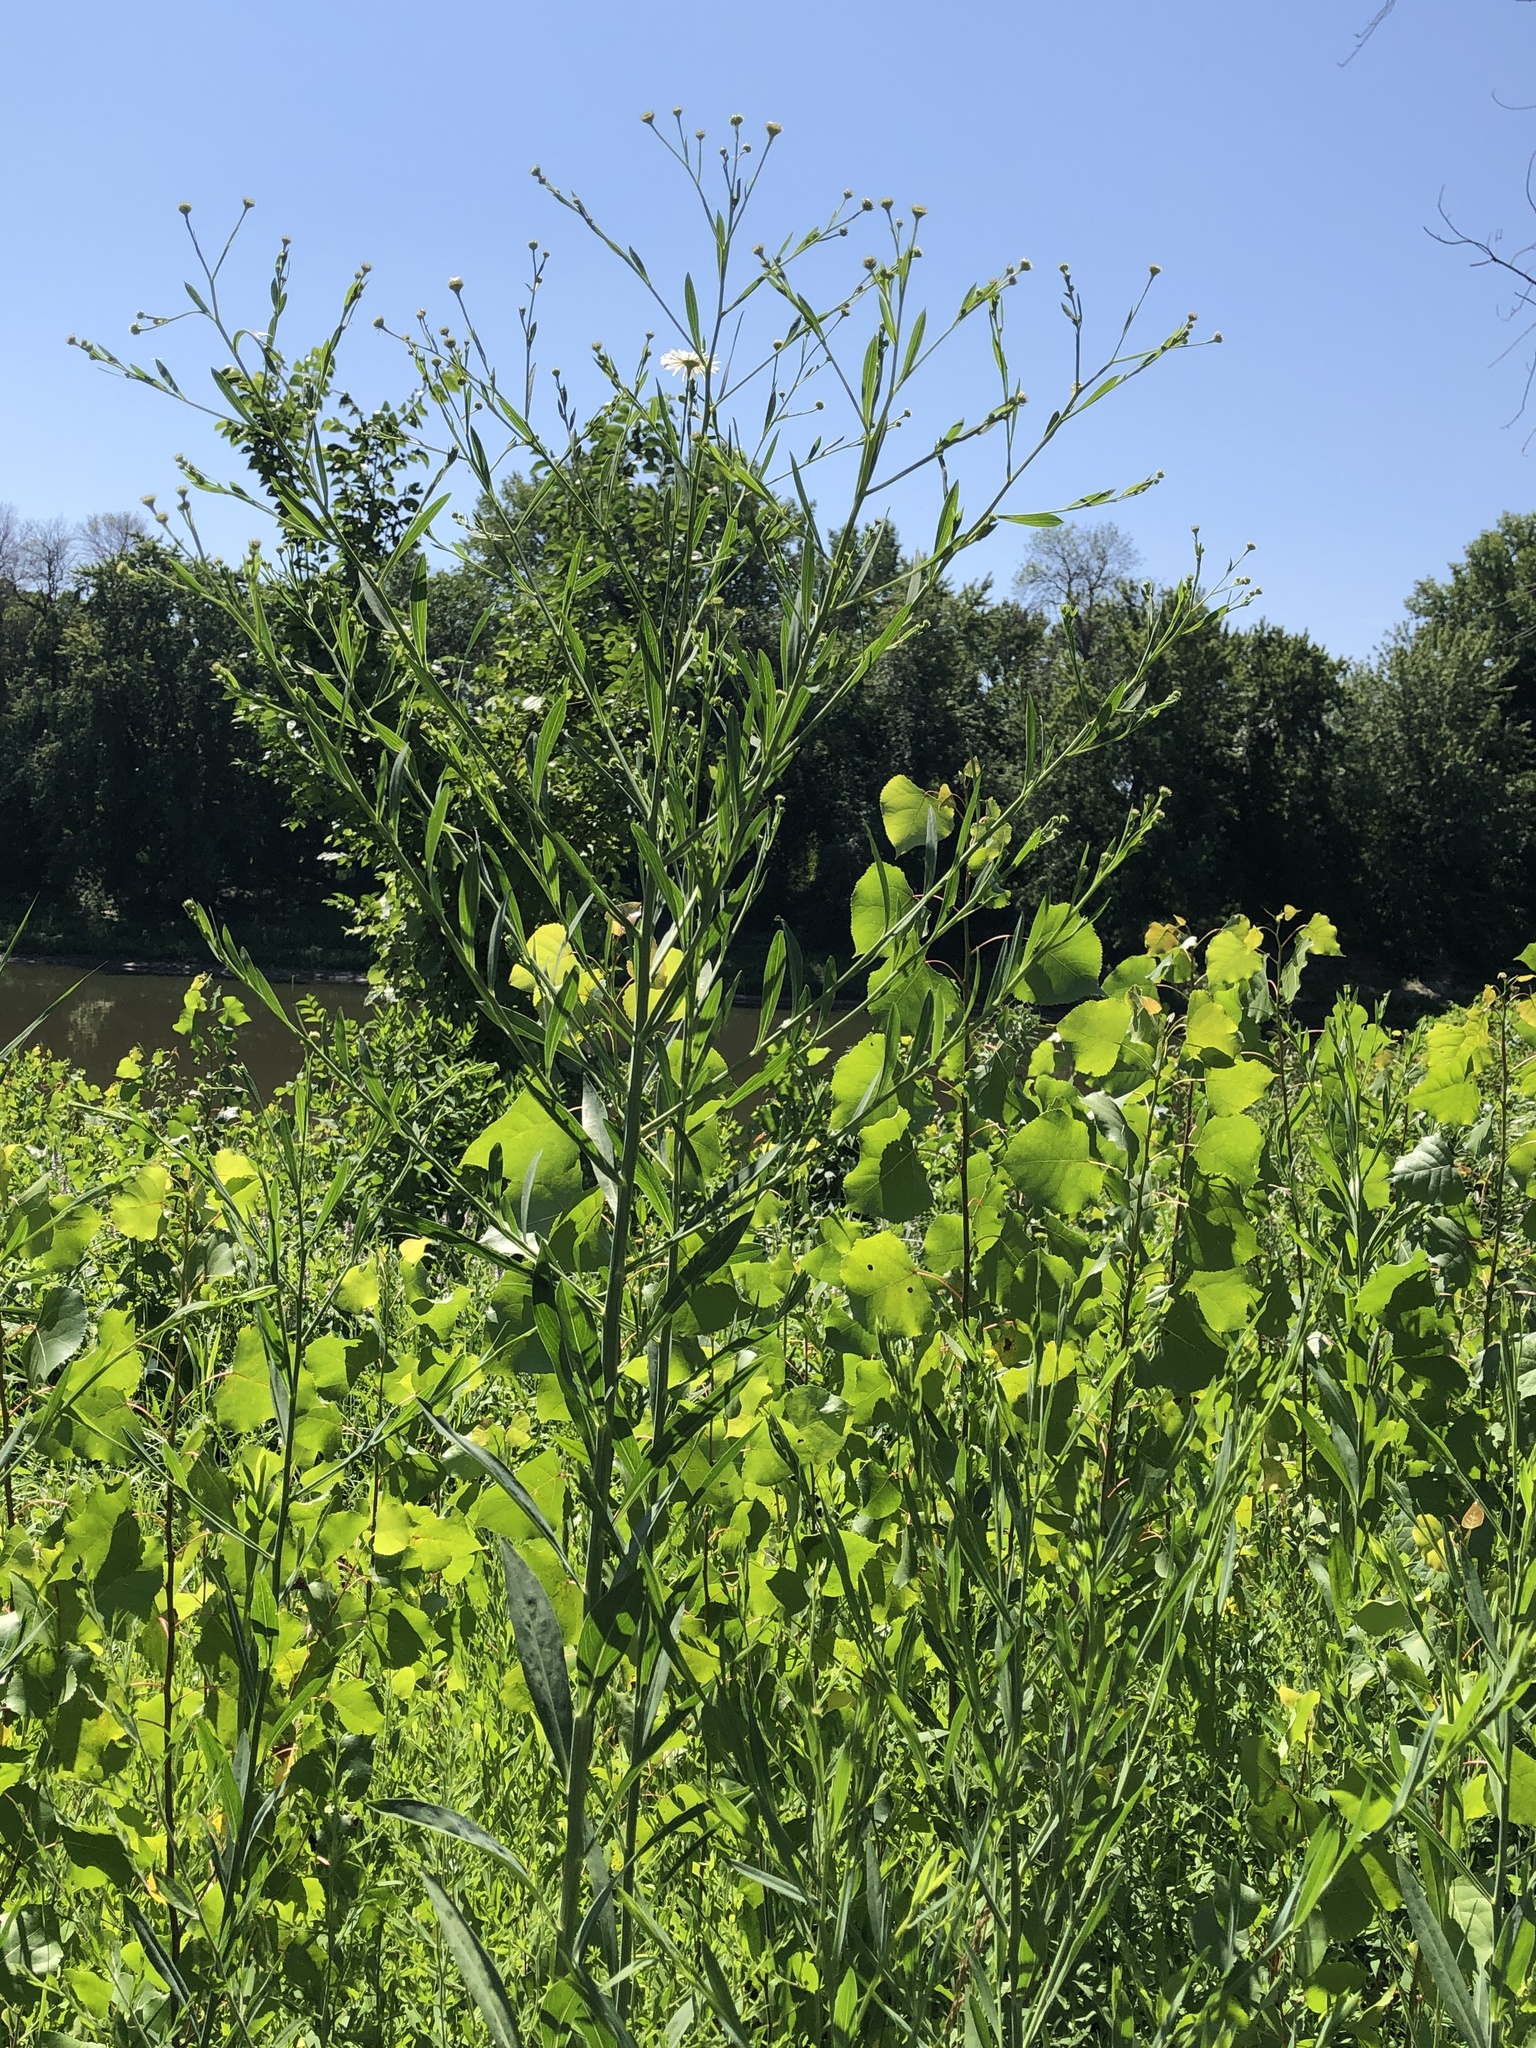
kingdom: Plantae
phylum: Tracheophyta
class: Magnoliopsida
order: Asterales
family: Asteraceae
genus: Boltonia
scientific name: Boltonia asteroides
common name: False chamomile
